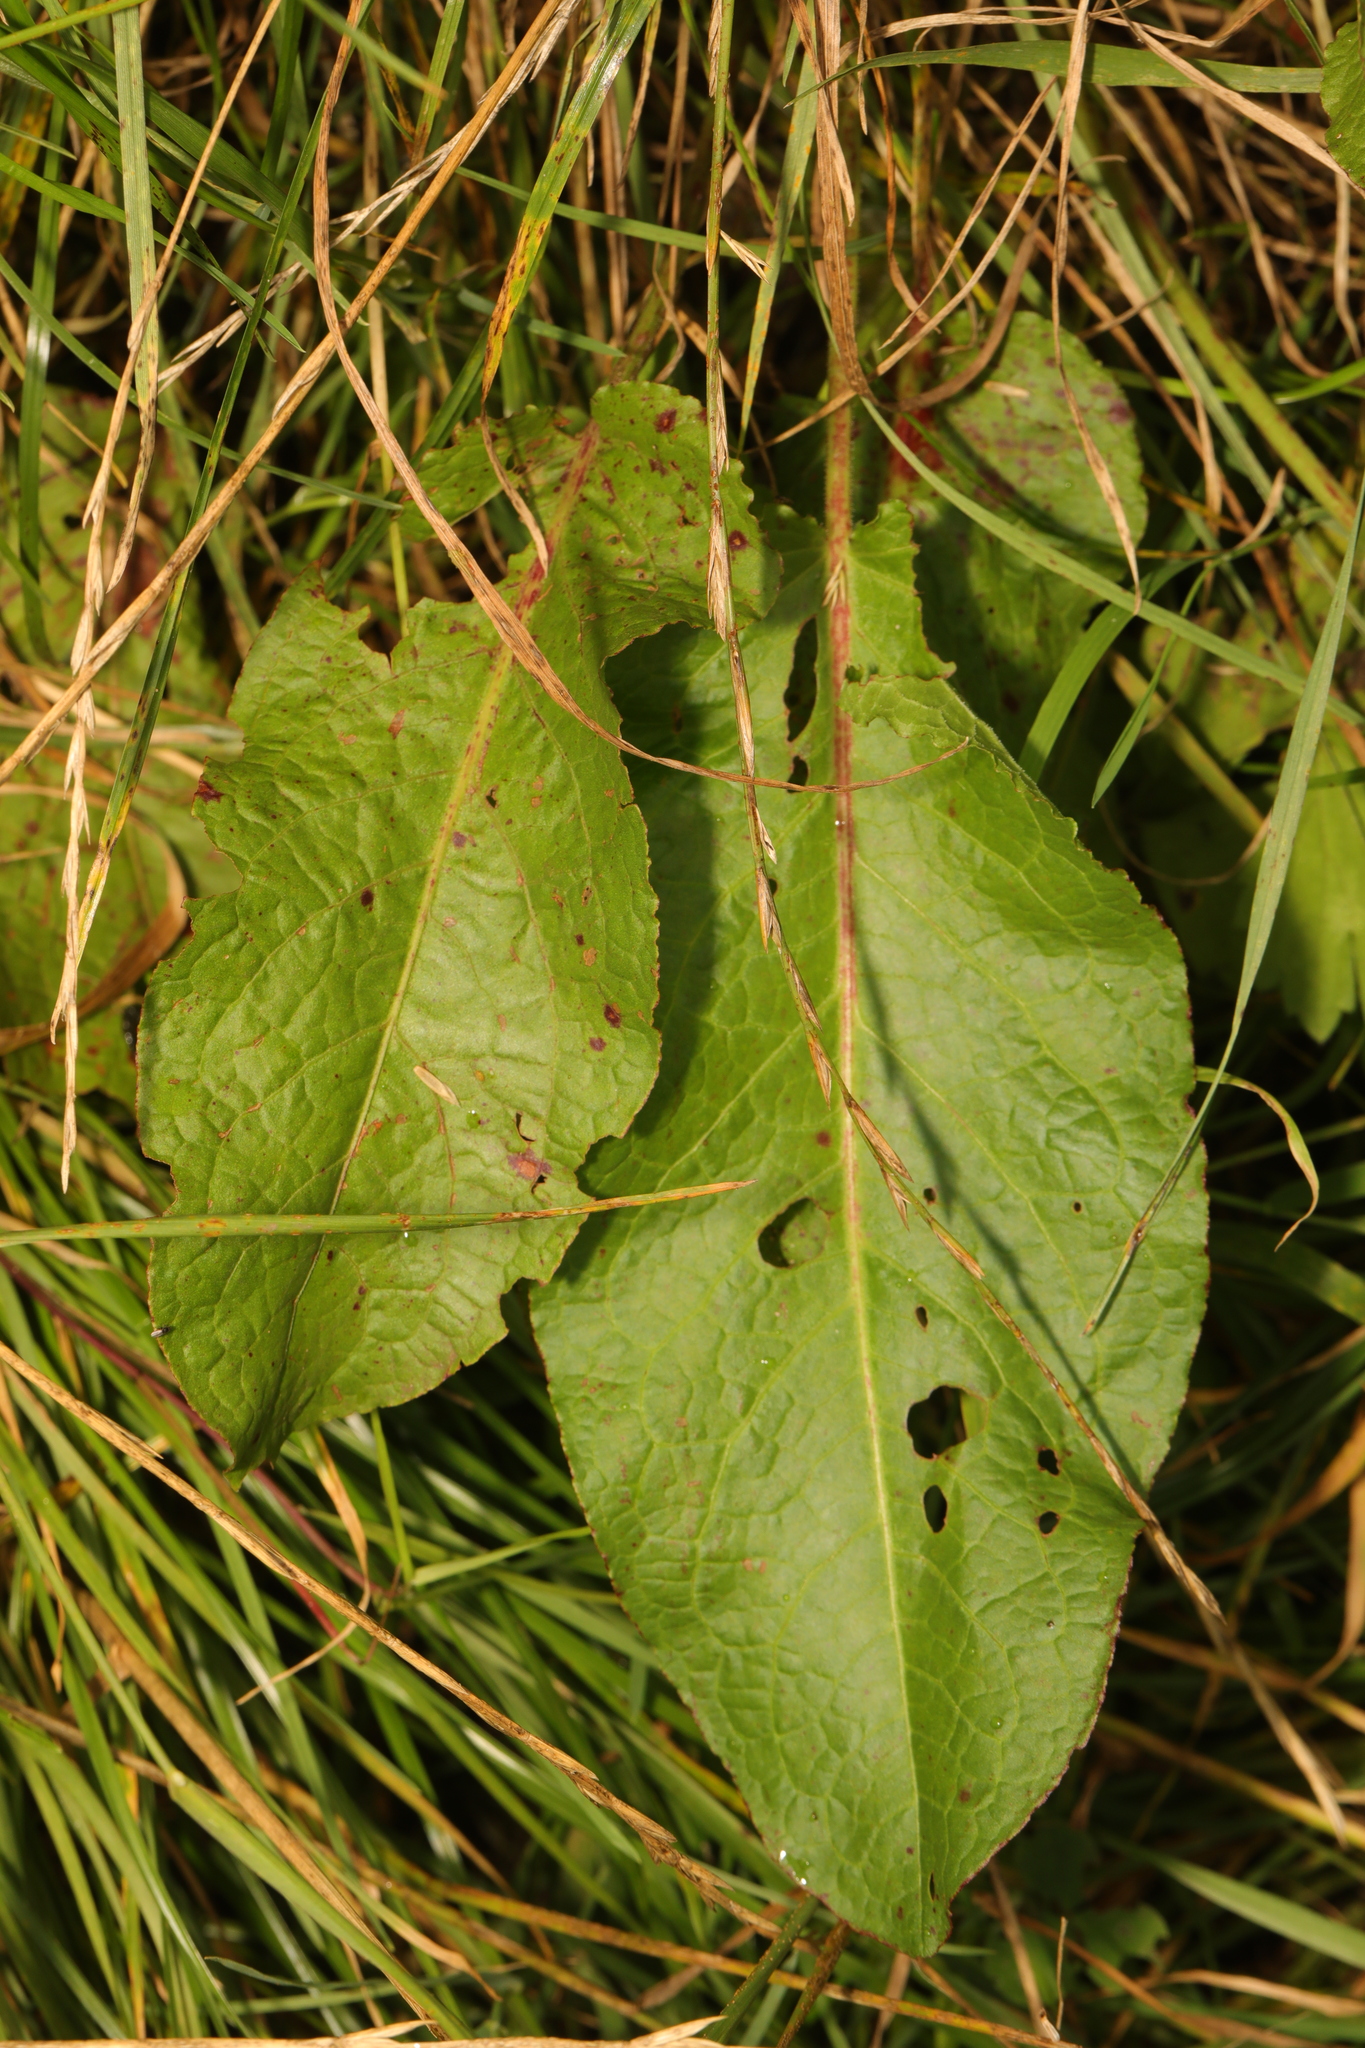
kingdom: Plantae
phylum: Tracheophyta
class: Magnoliopsida
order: Caryophyllales
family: Polygonaceae
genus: Rumex
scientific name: Rumex obtusifolius
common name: Bitter dock
